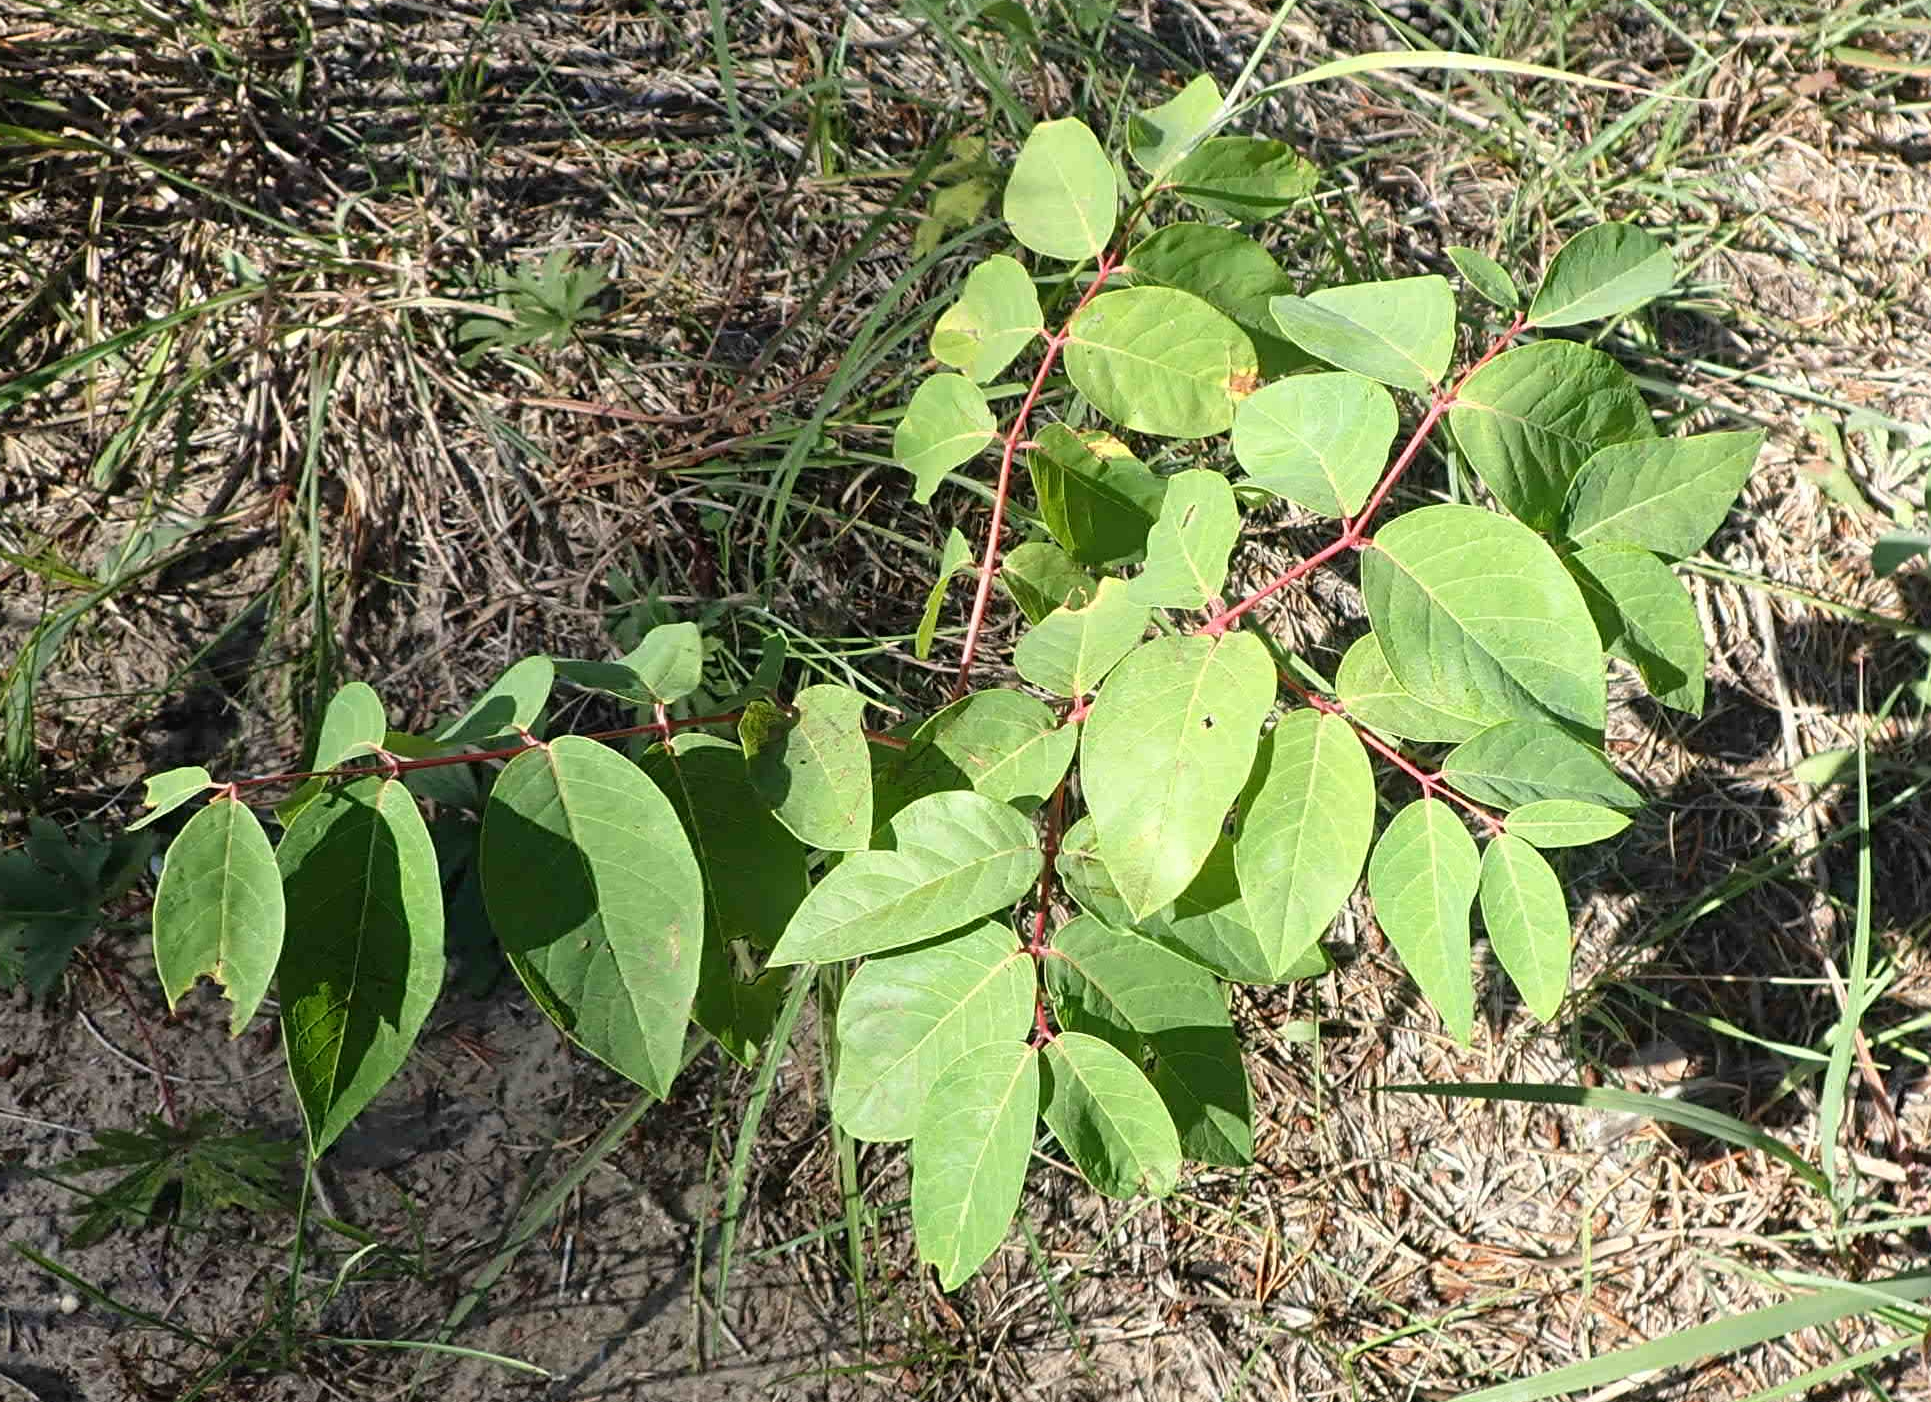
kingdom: Plantae
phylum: Tracheophyta
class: Magnoliopsida
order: Gentianales
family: Apocynaceae
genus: Apocynum
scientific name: Apocynum androsaemifolium
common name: Spreading dogbane
